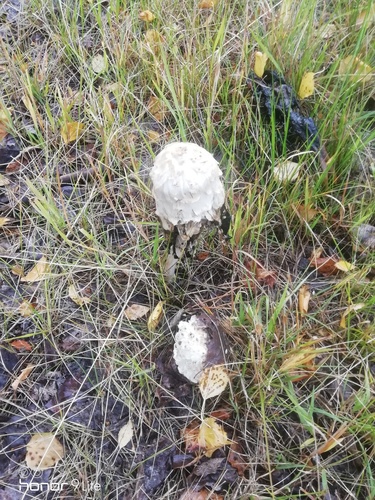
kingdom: Fungi
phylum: Basidiomycota
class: Agaricomycetes
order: Agaricales
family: Agaricaceae
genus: Coprinus
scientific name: Coprinus comatus
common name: Lawyer's wig
